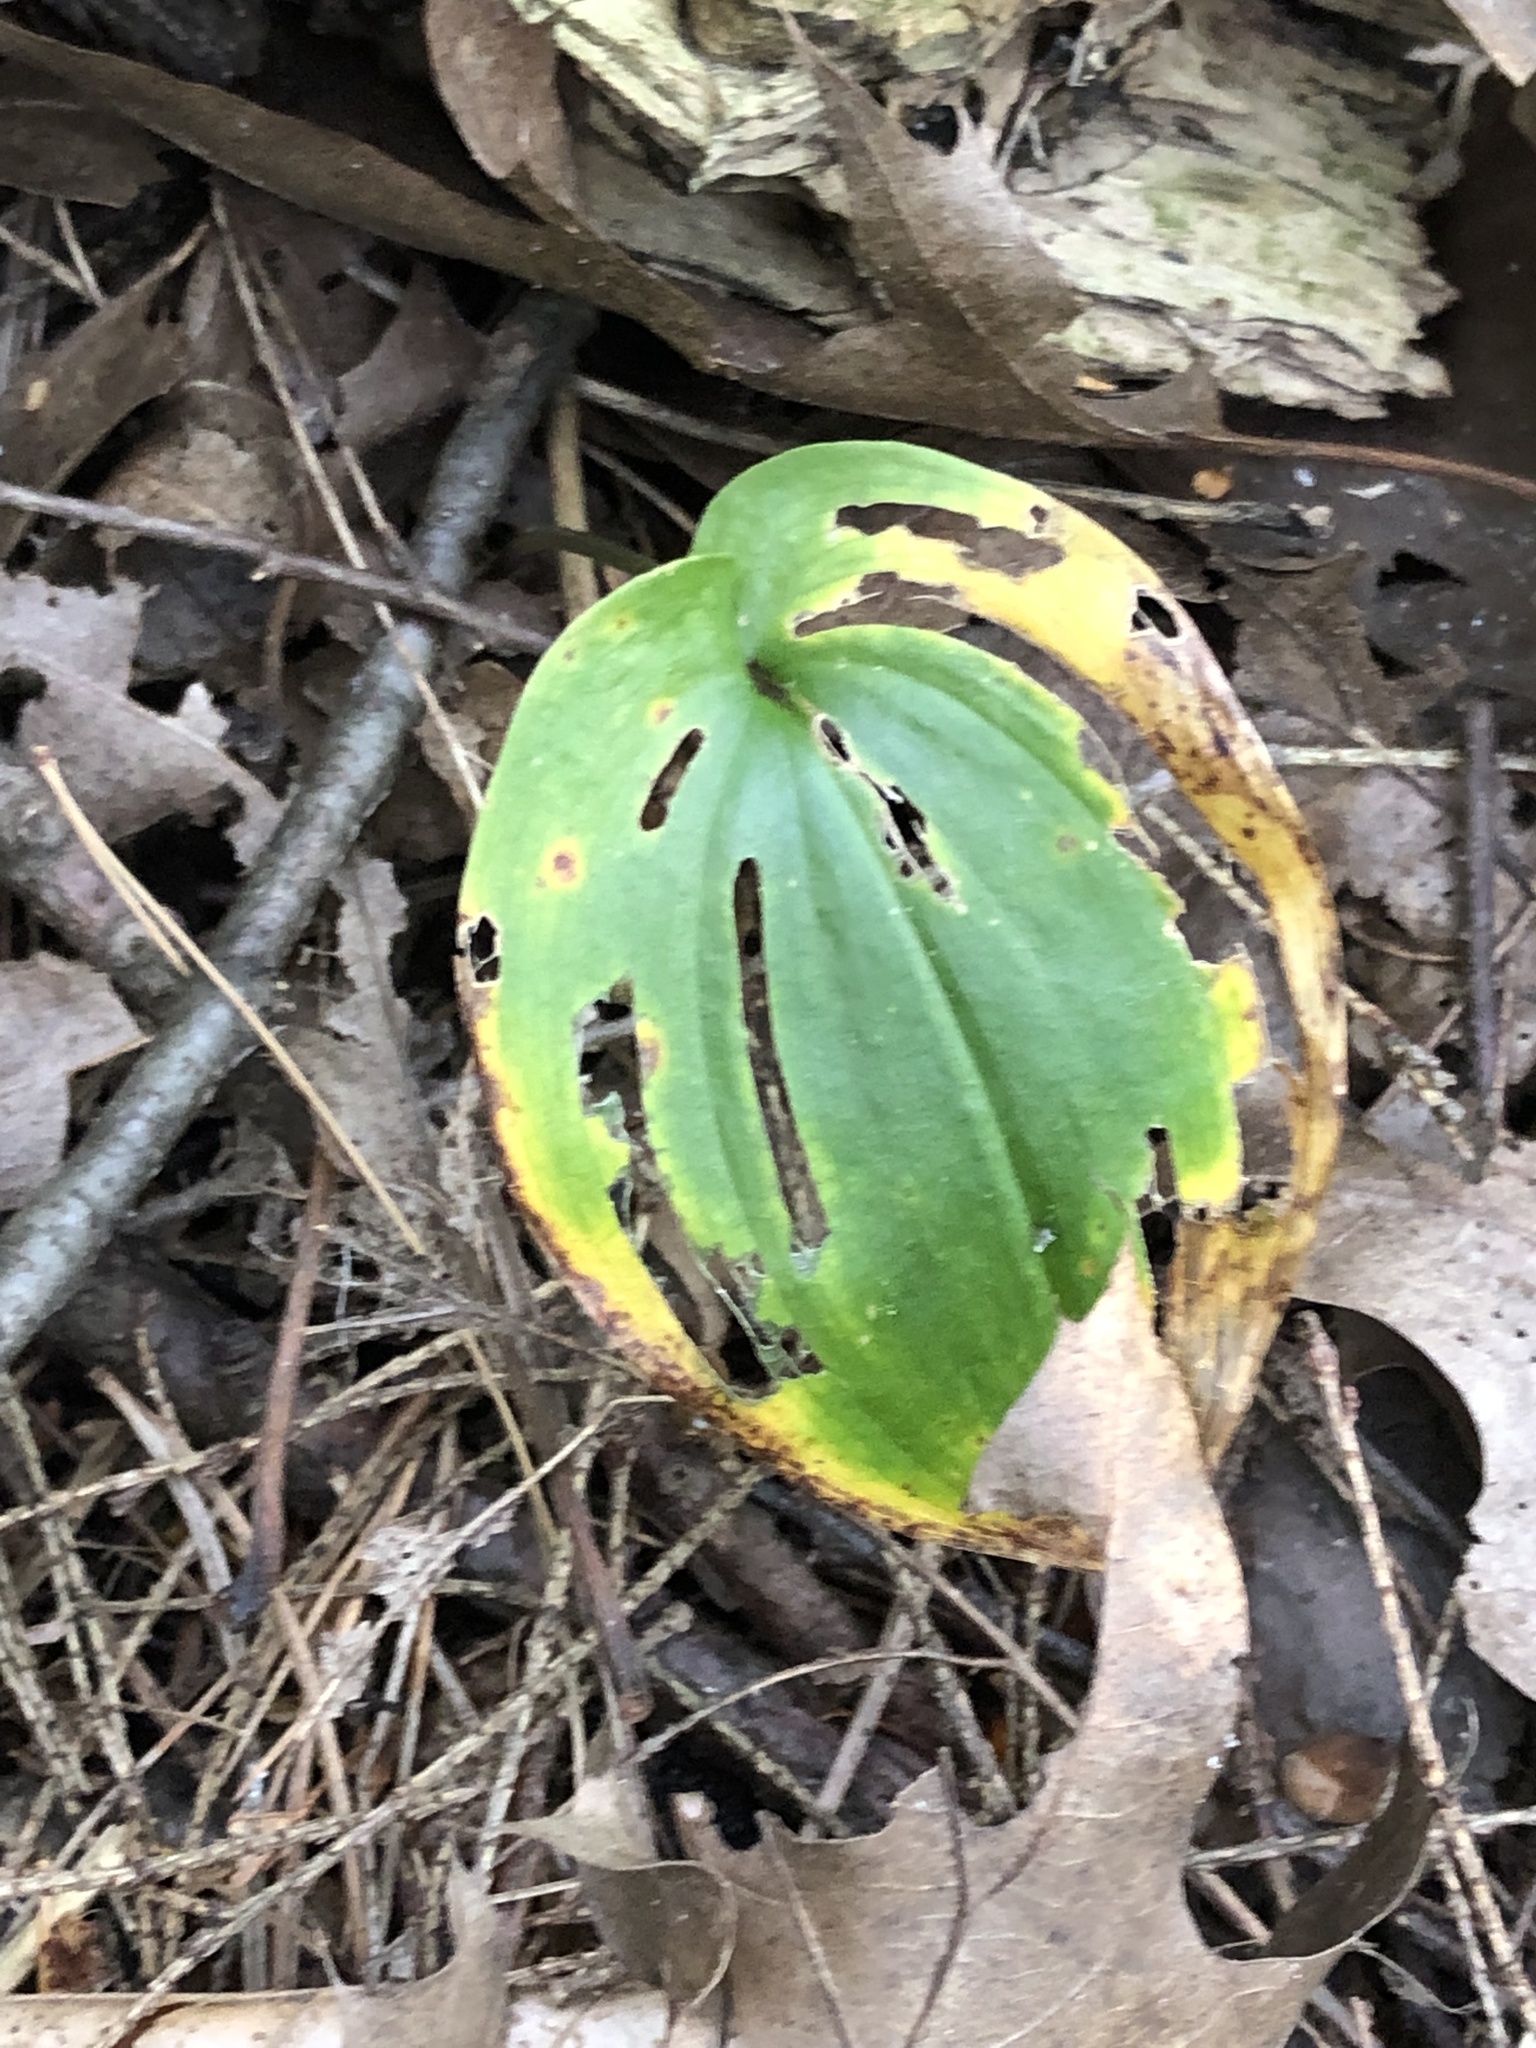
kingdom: Plantae
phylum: Tracheophyta
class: Liliopsida
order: Asparagales
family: Asparagaceae
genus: Maianthemum
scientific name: Maianthemum canadense
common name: False lily-of-the-valley
